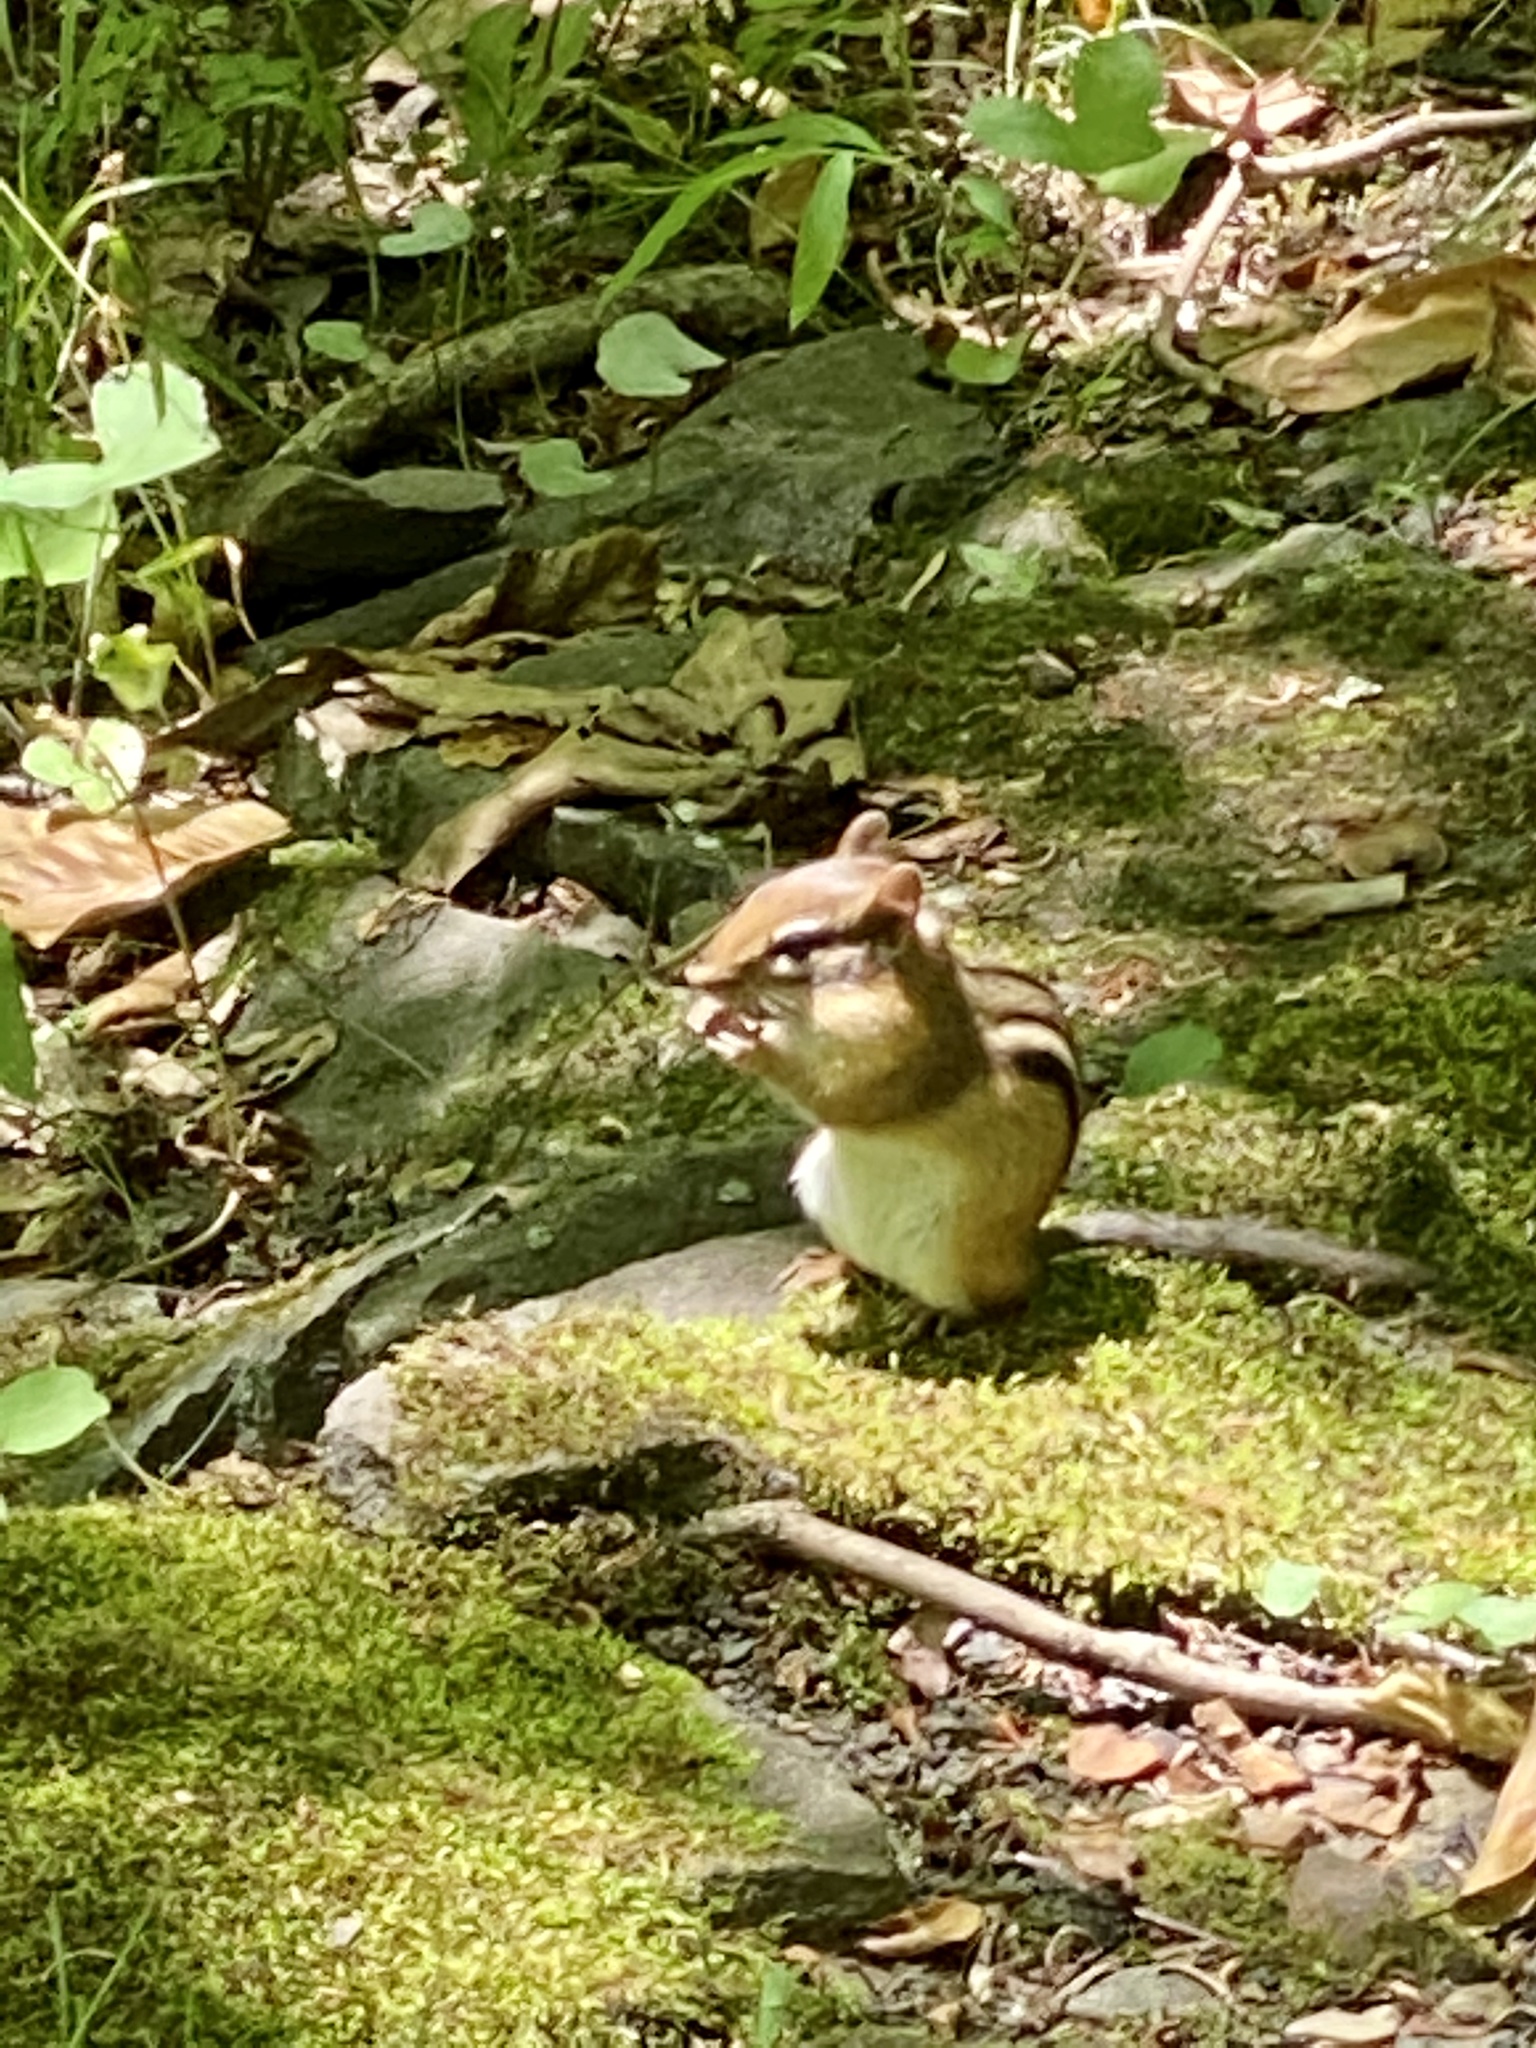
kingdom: Animalia
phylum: Chordata
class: Mammalia
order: Rodentia
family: Sciuridae
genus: Tamias
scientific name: Tamias striatus
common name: Eastern chipmunk
